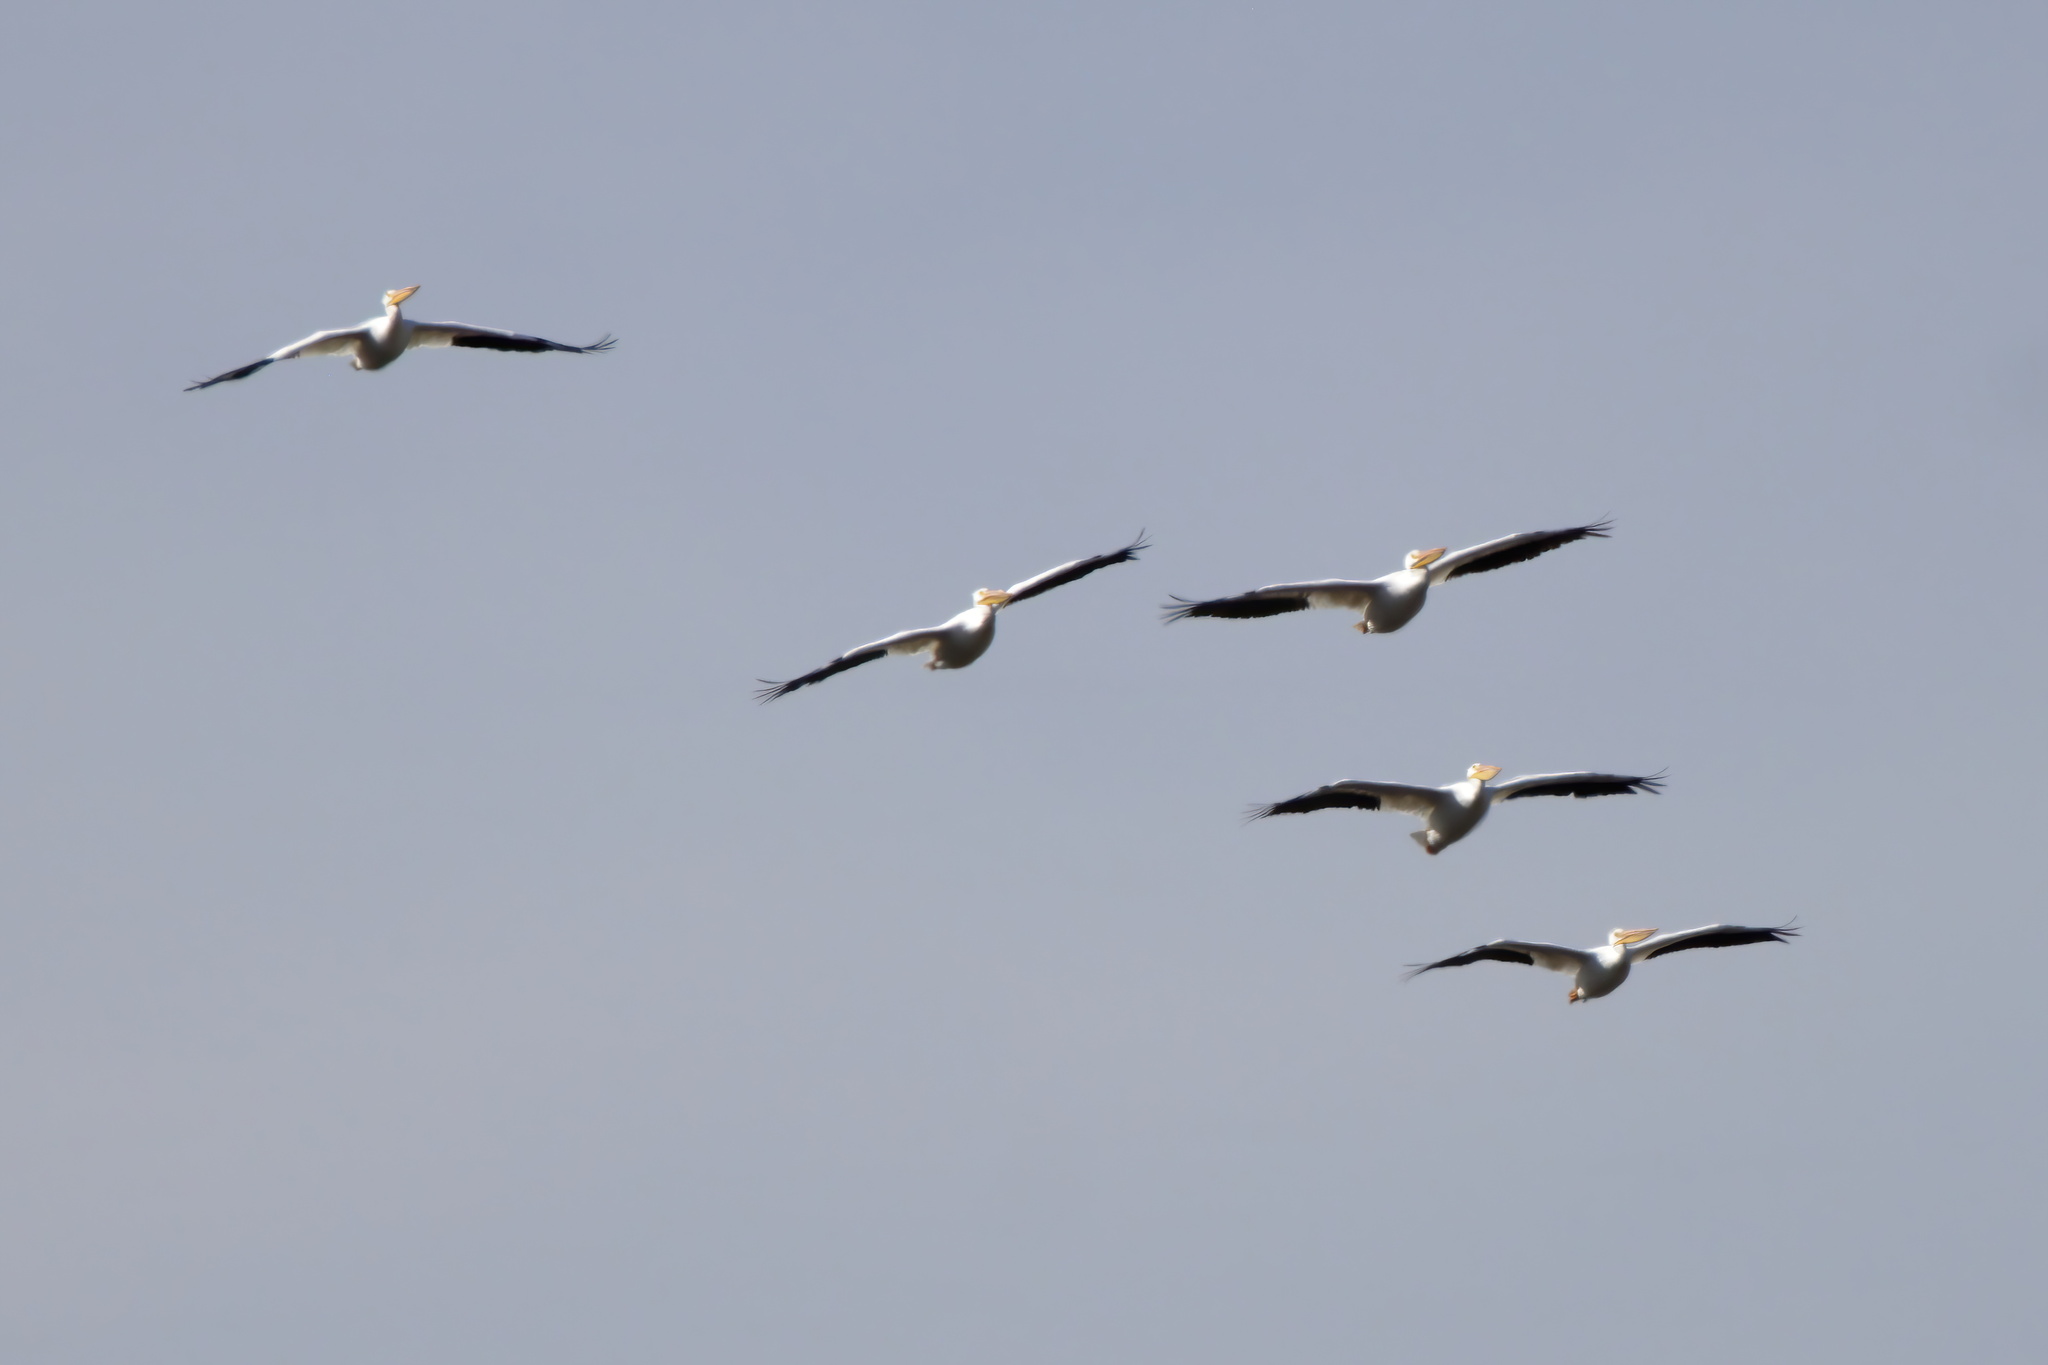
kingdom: Animalia
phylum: Chordata
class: Aves
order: Pelecaniformes
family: Pelecanidae
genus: Pelecanus
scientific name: Pelecanus erythrorhynchos
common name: American white pelican
